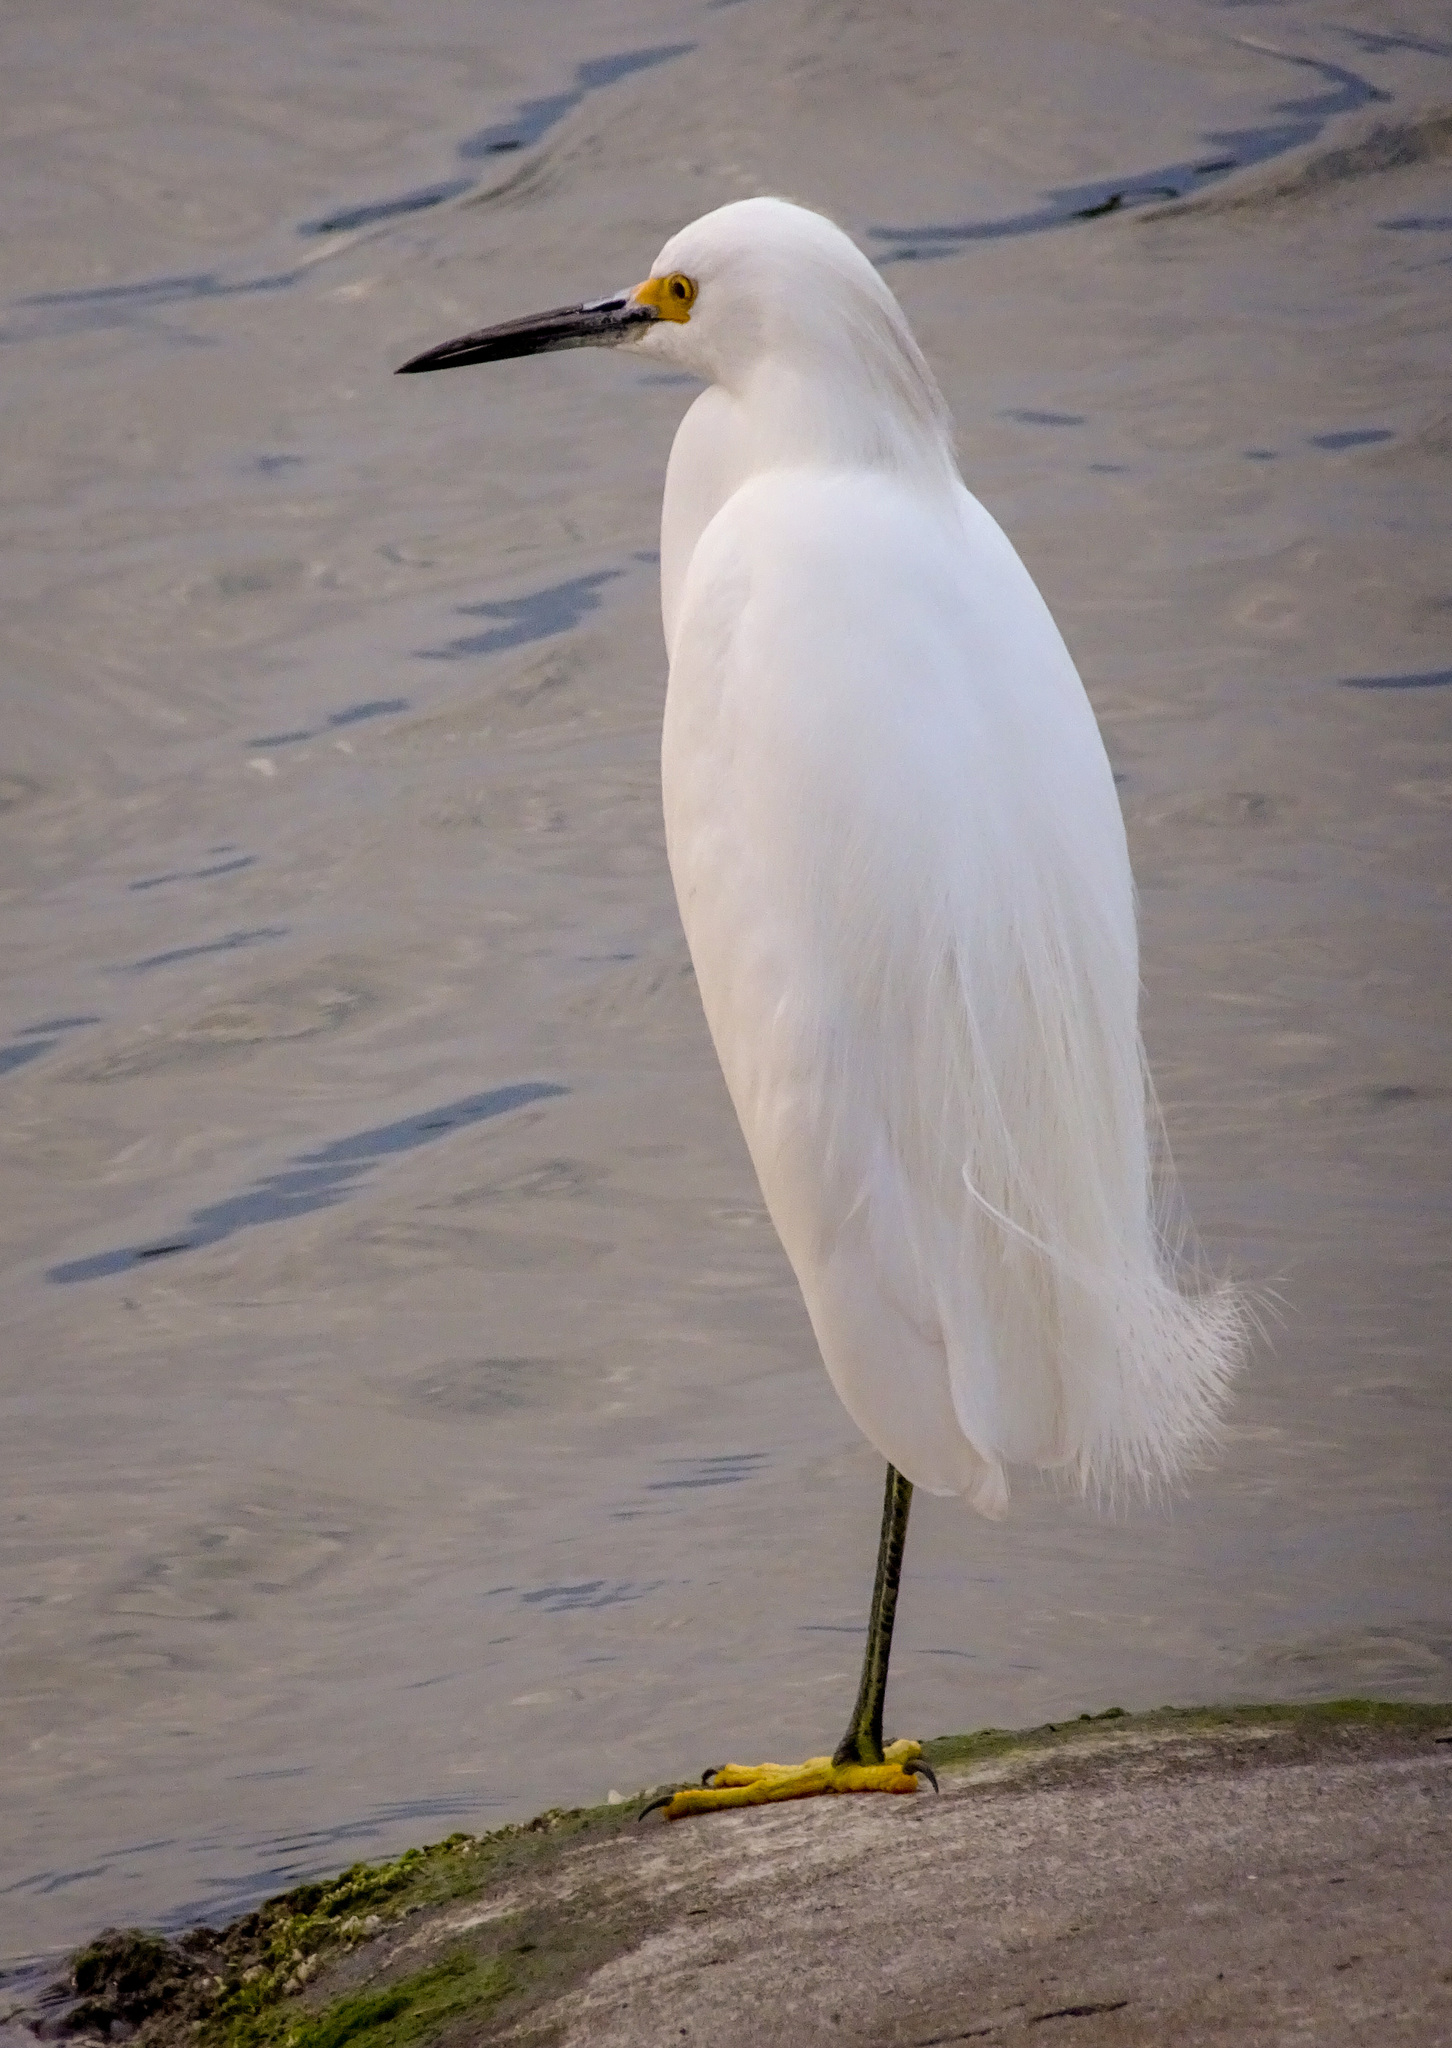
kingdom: Animalia
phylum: Chordata
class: Aves
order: Pelecaniformes
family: Ardeidae
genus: Egretta
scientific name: Egretta thula
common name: Snowy egret
